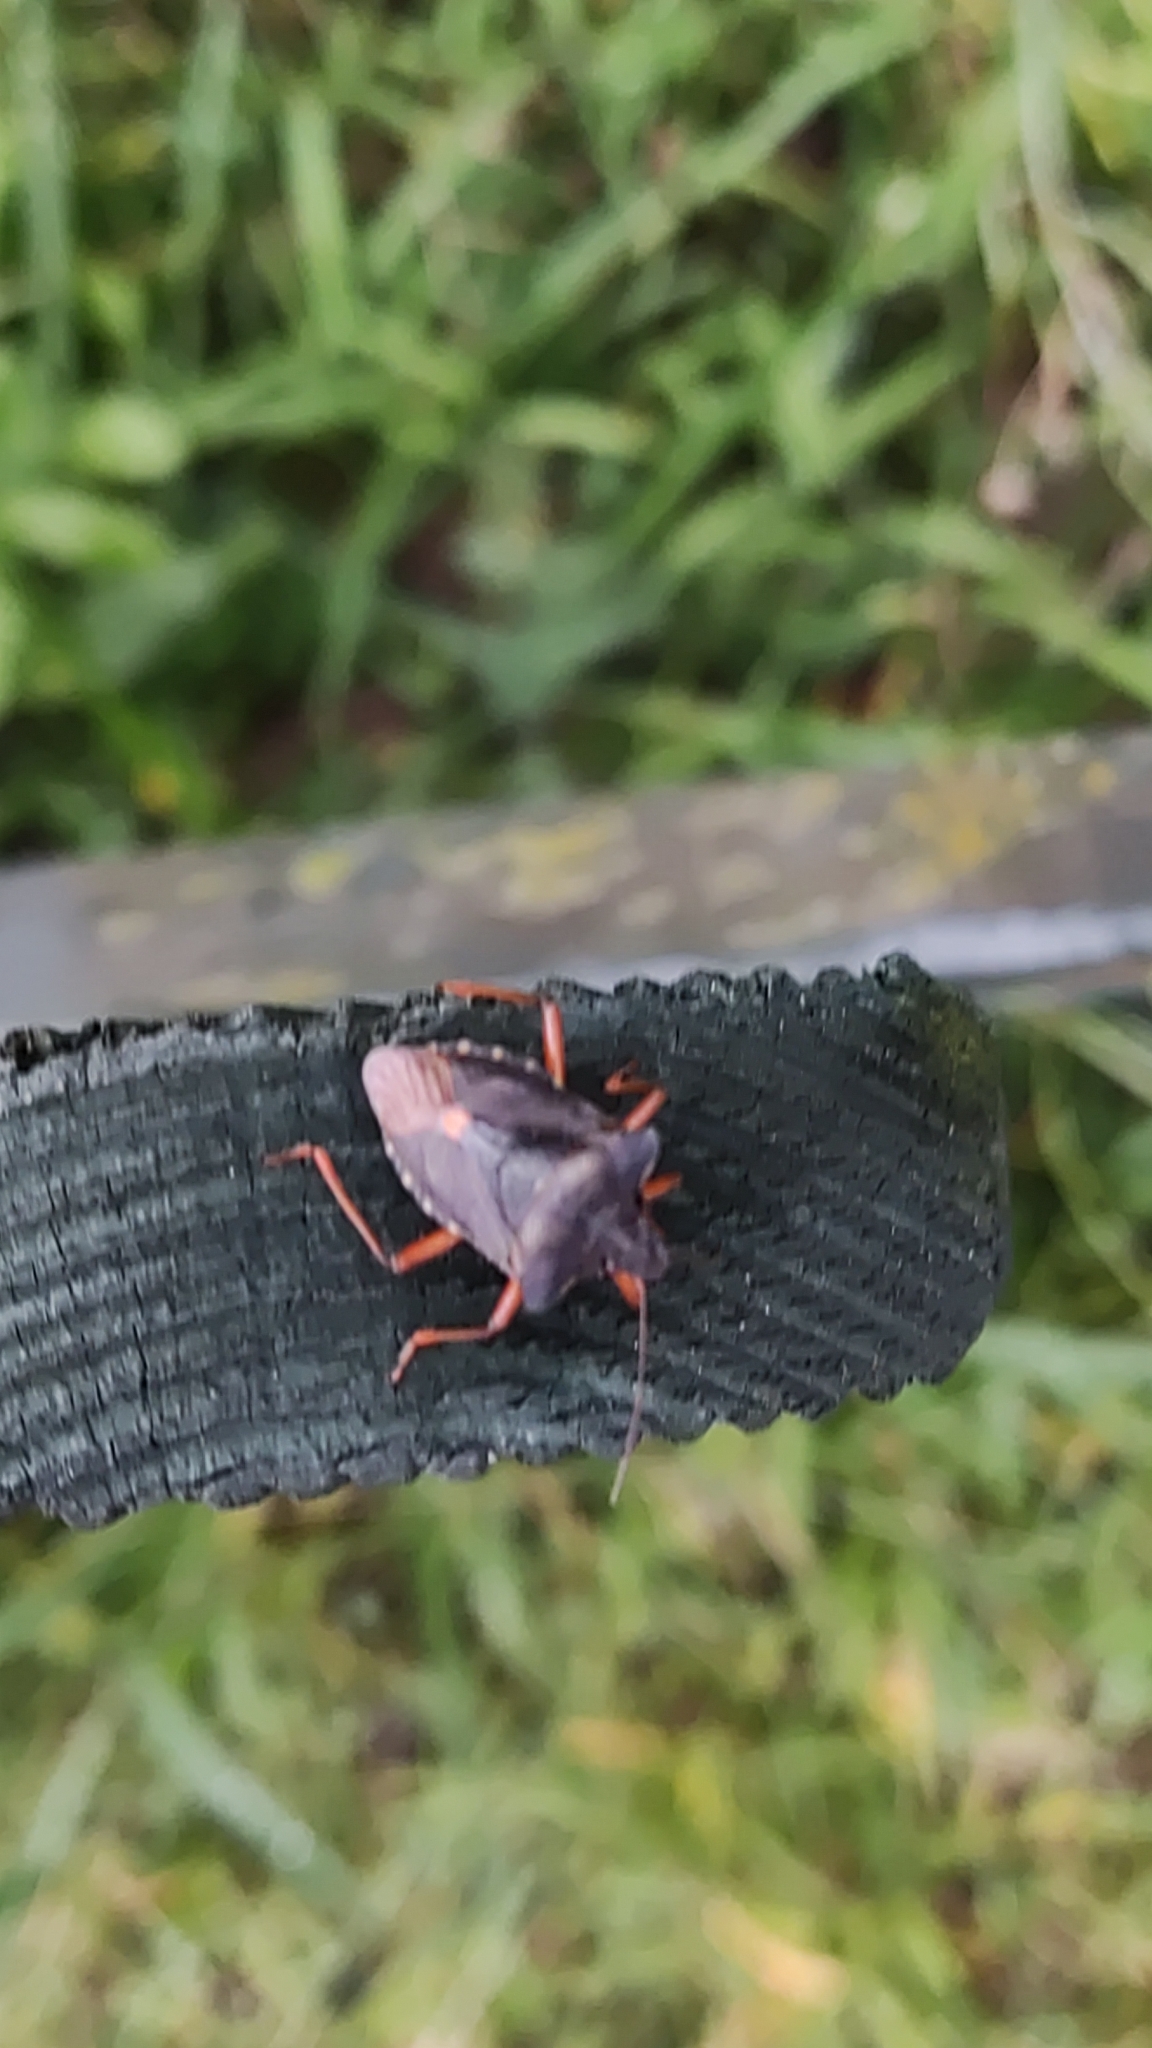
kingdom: Animalia
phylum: Arthropoda
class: Insecta
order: Hemiptera
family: Pentatomidae
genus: Pentatoma
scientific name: Pentatoma rufipes
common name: Forest bug
